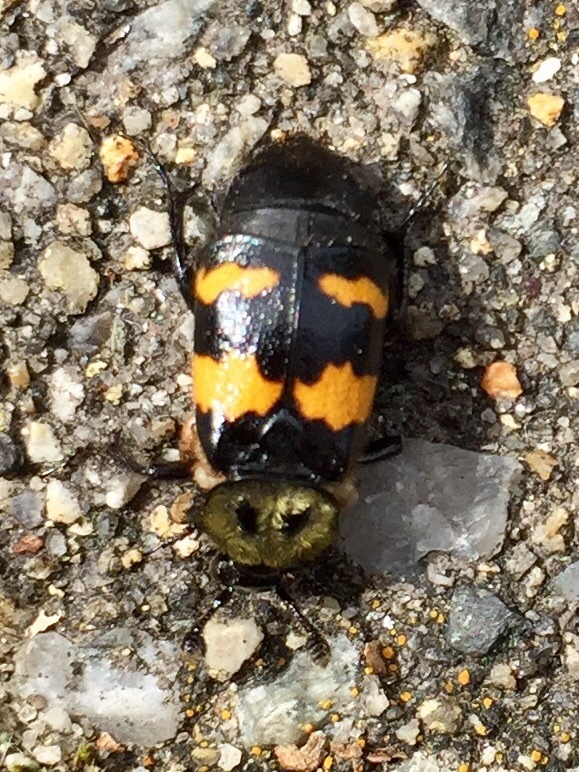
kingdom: Animalia
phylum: Arthropoda
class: Insecta
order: Coleoptera
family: Staphylinidae
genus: Nicrophorus
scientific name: Nicrophorus tomentosus
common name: Tomentose burying beetle
